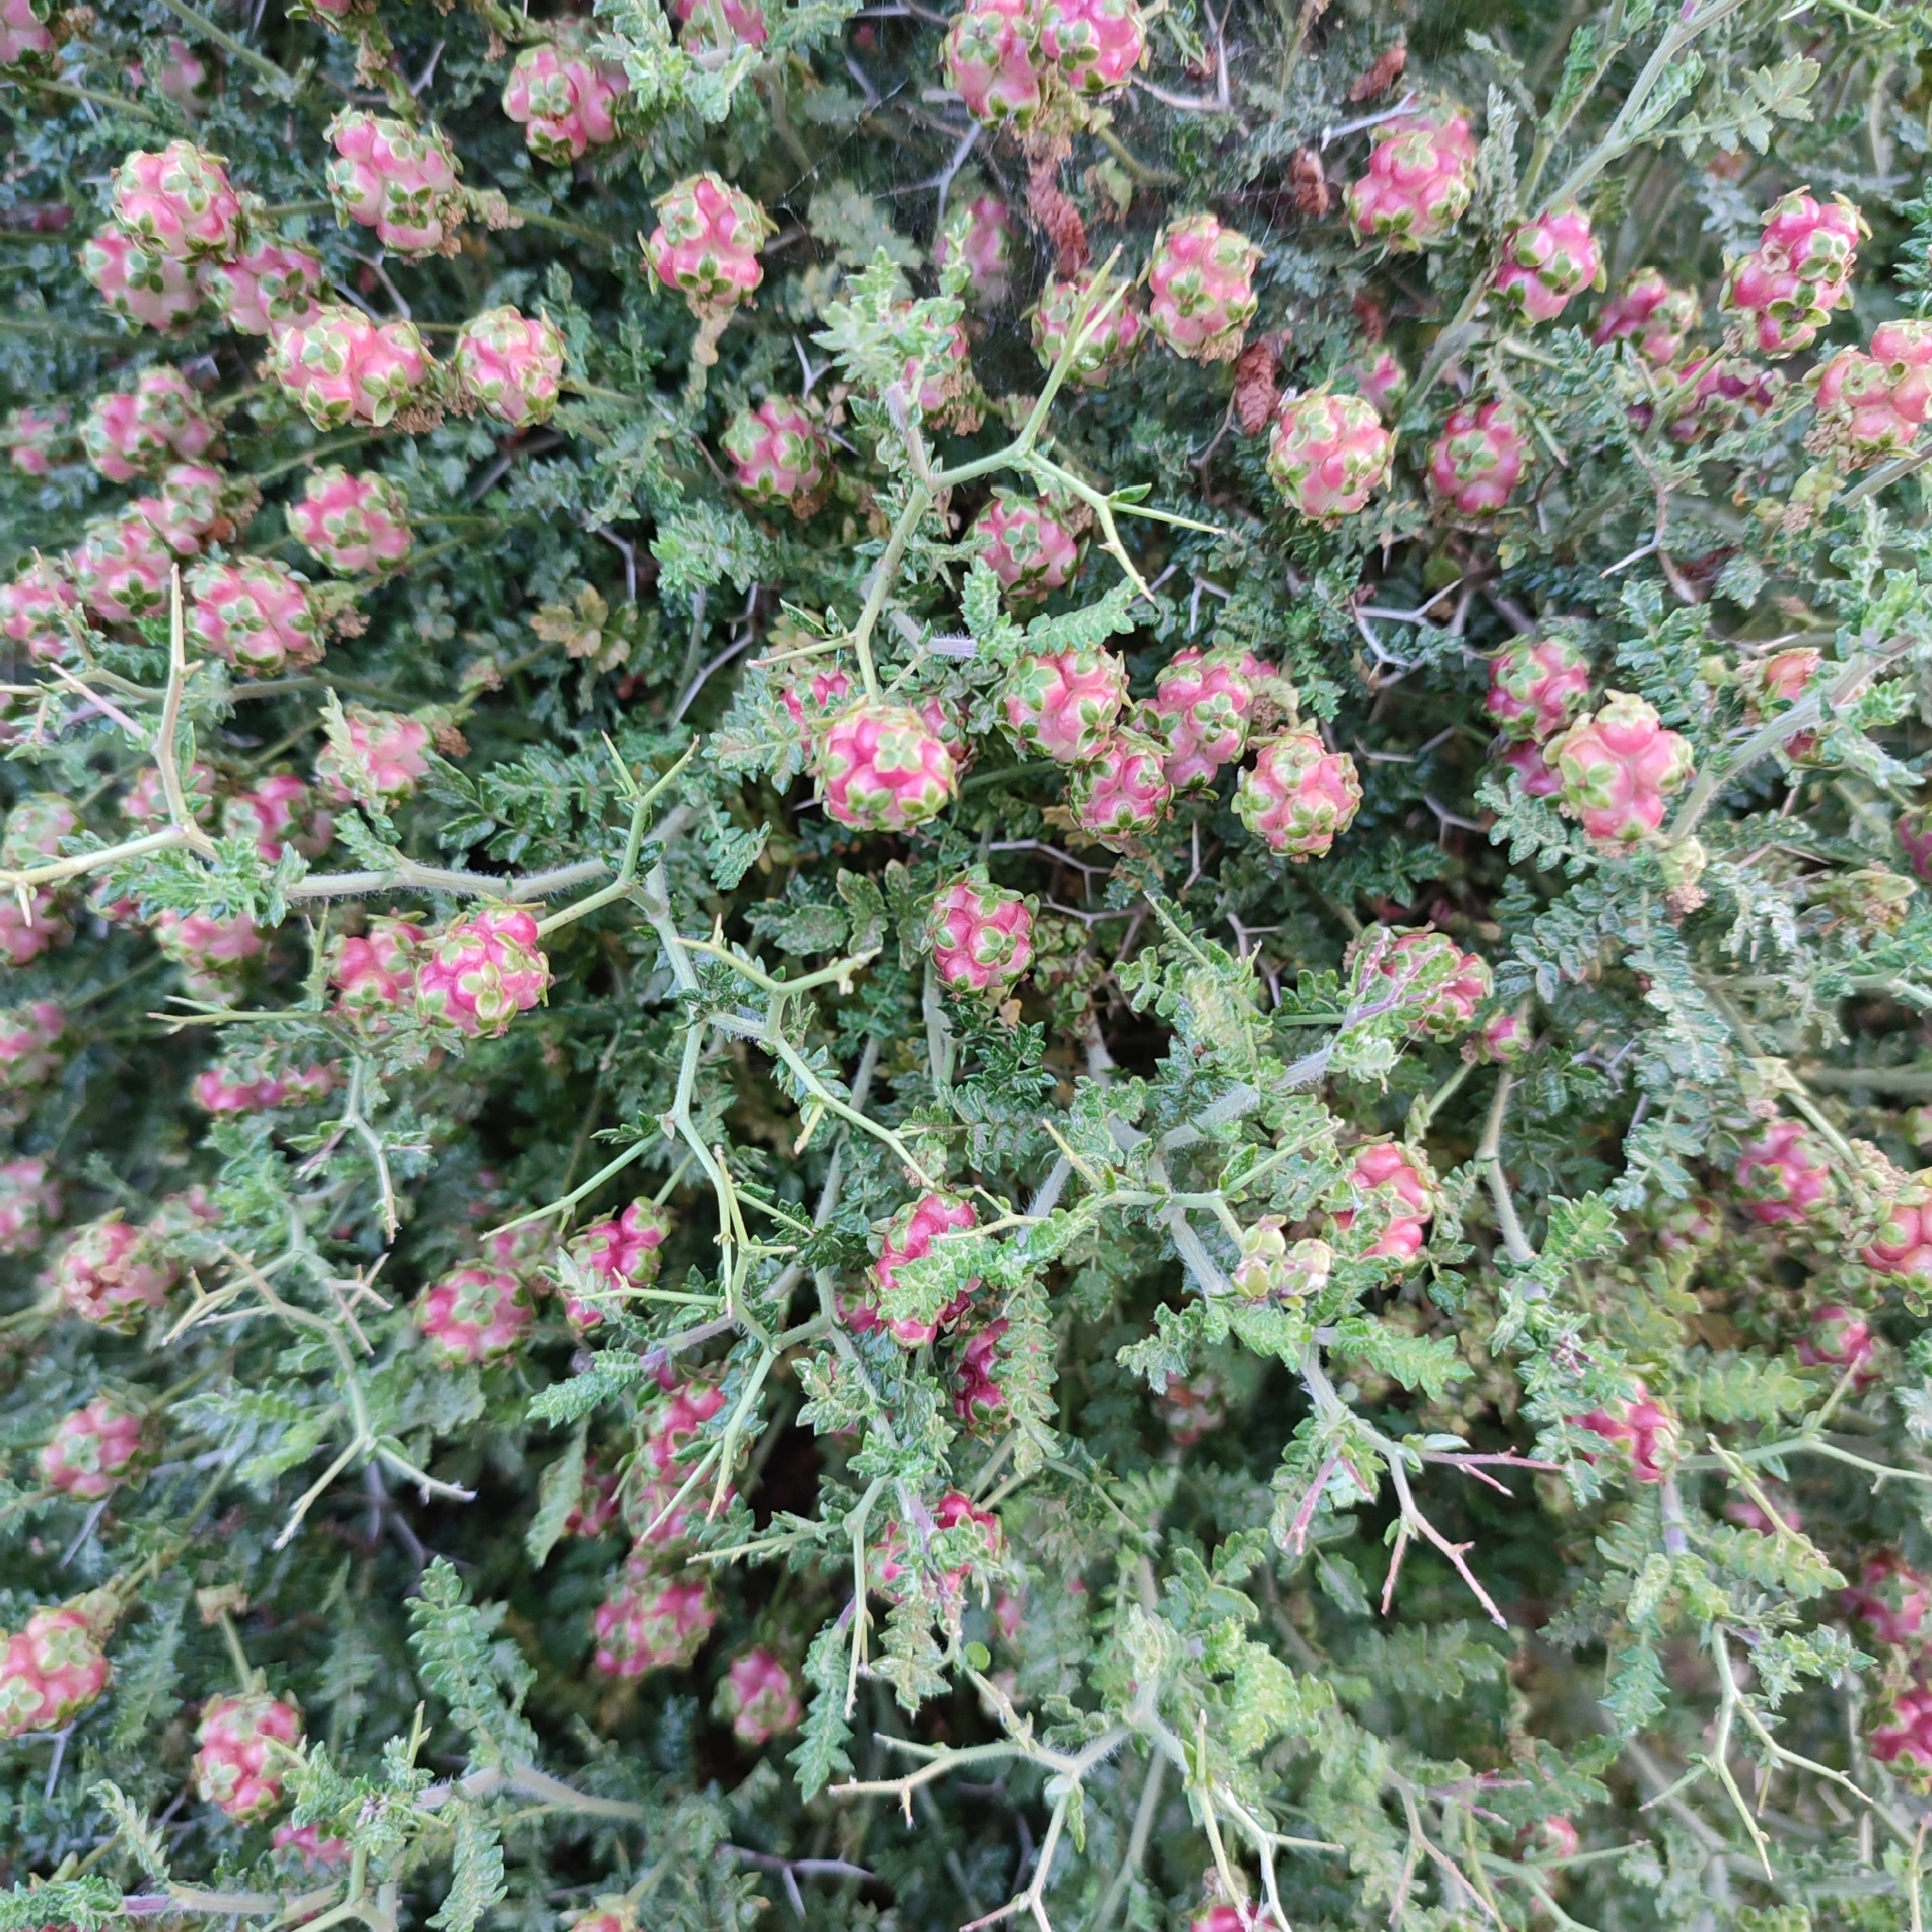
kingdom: Plantae
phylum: Tracheophyta
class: Magnoliopsida
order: Rosales
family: Rosaceae
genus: Sarcopoterium
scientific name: Sarcopoterium spinosum
